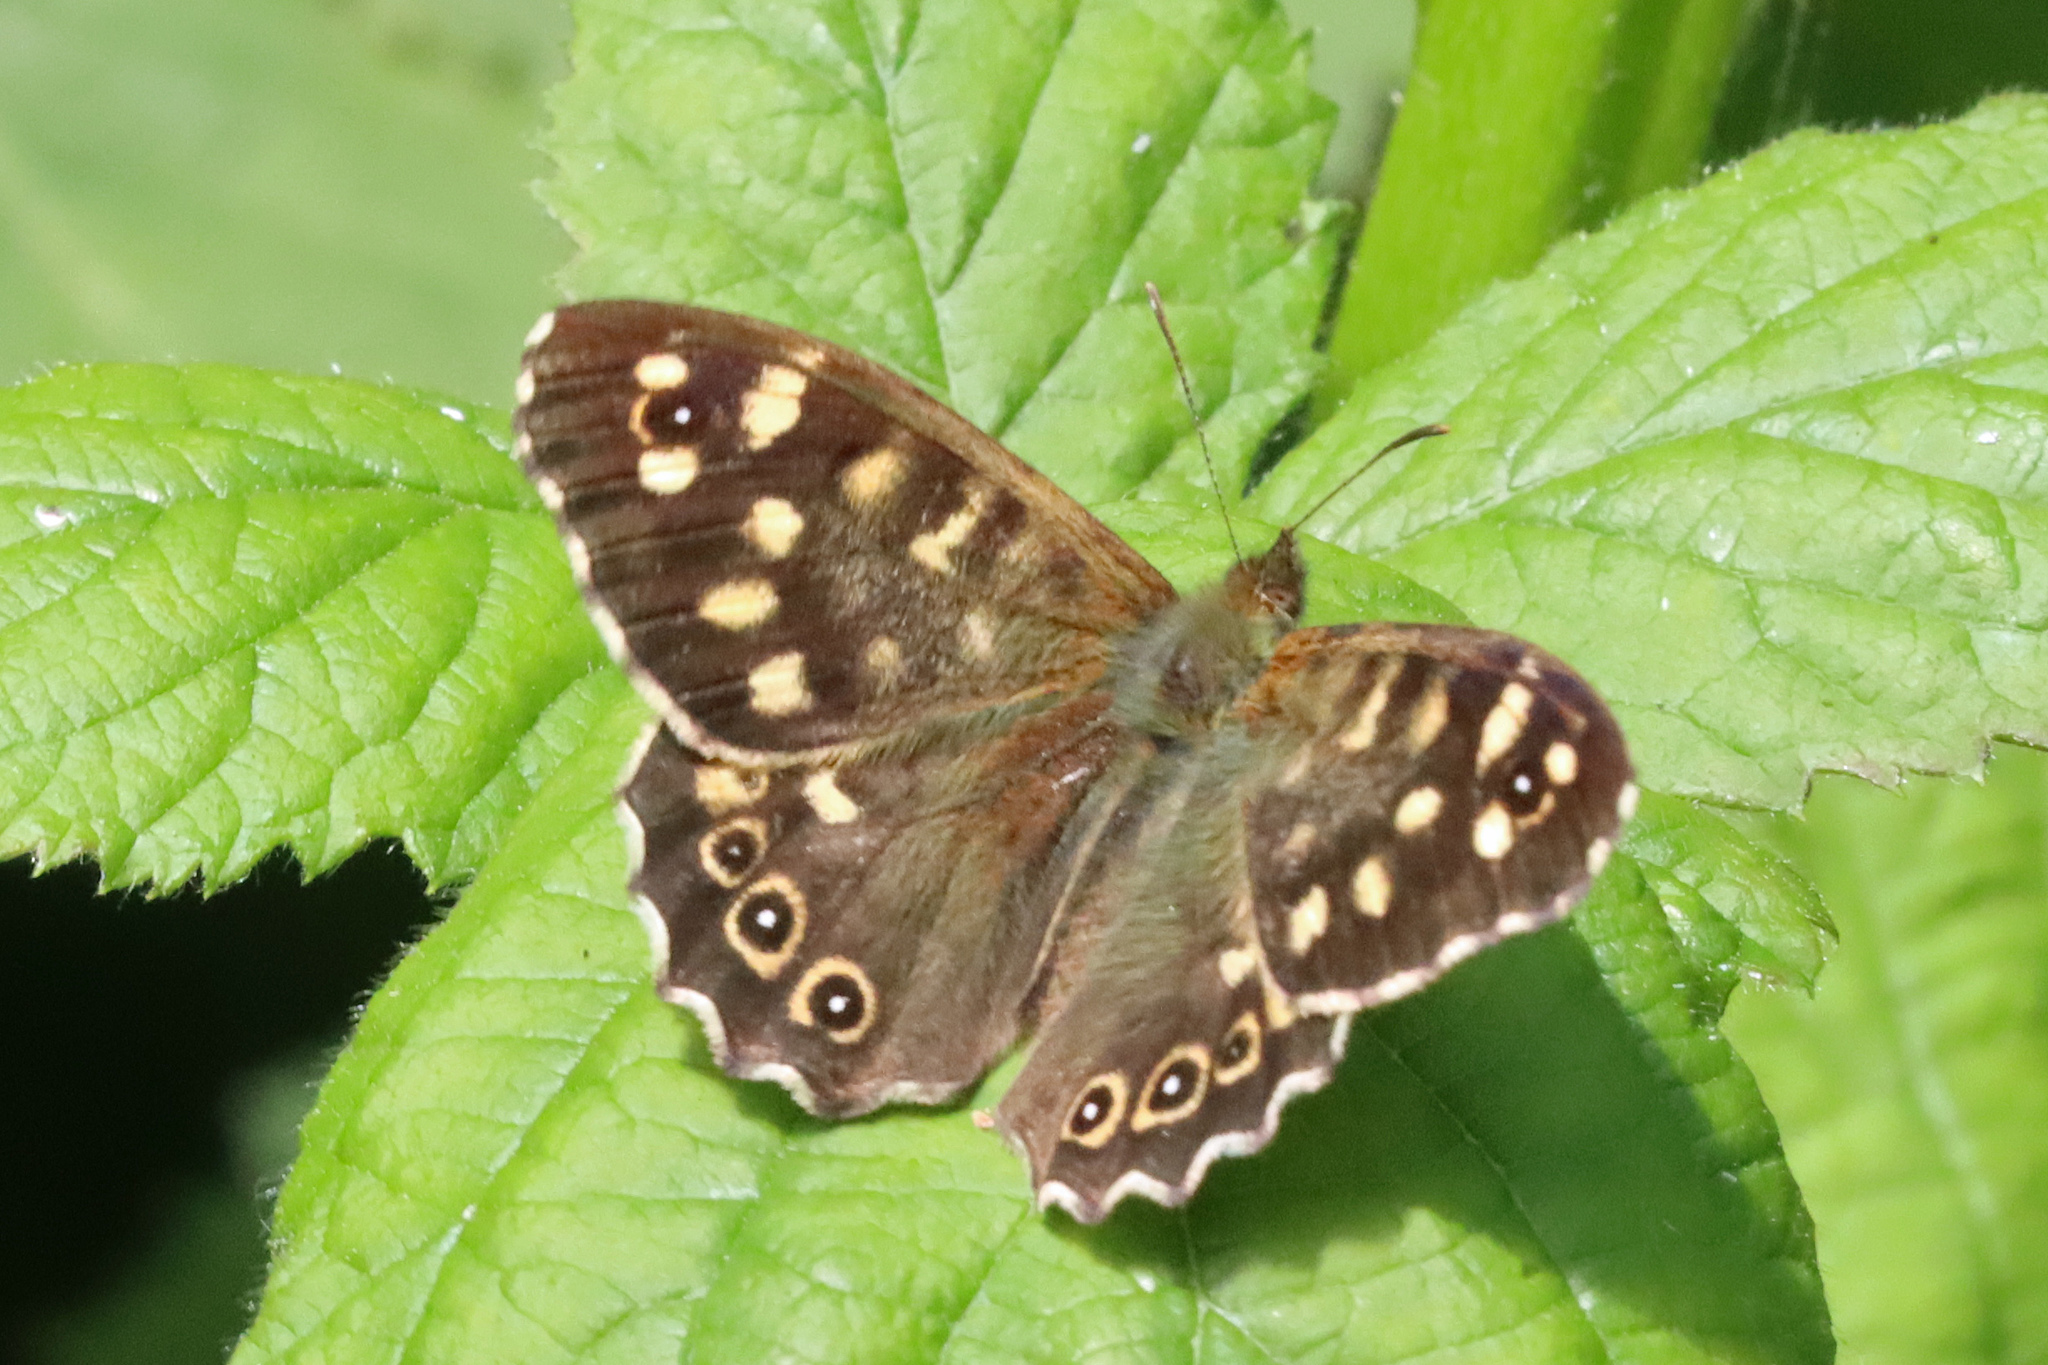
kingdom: Animalia
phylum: Arthropoda
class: Insecta
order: Lepidoptera
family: Nymphalidae
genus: Pararge
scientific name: Pararge aegeria
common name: Speckled wood
